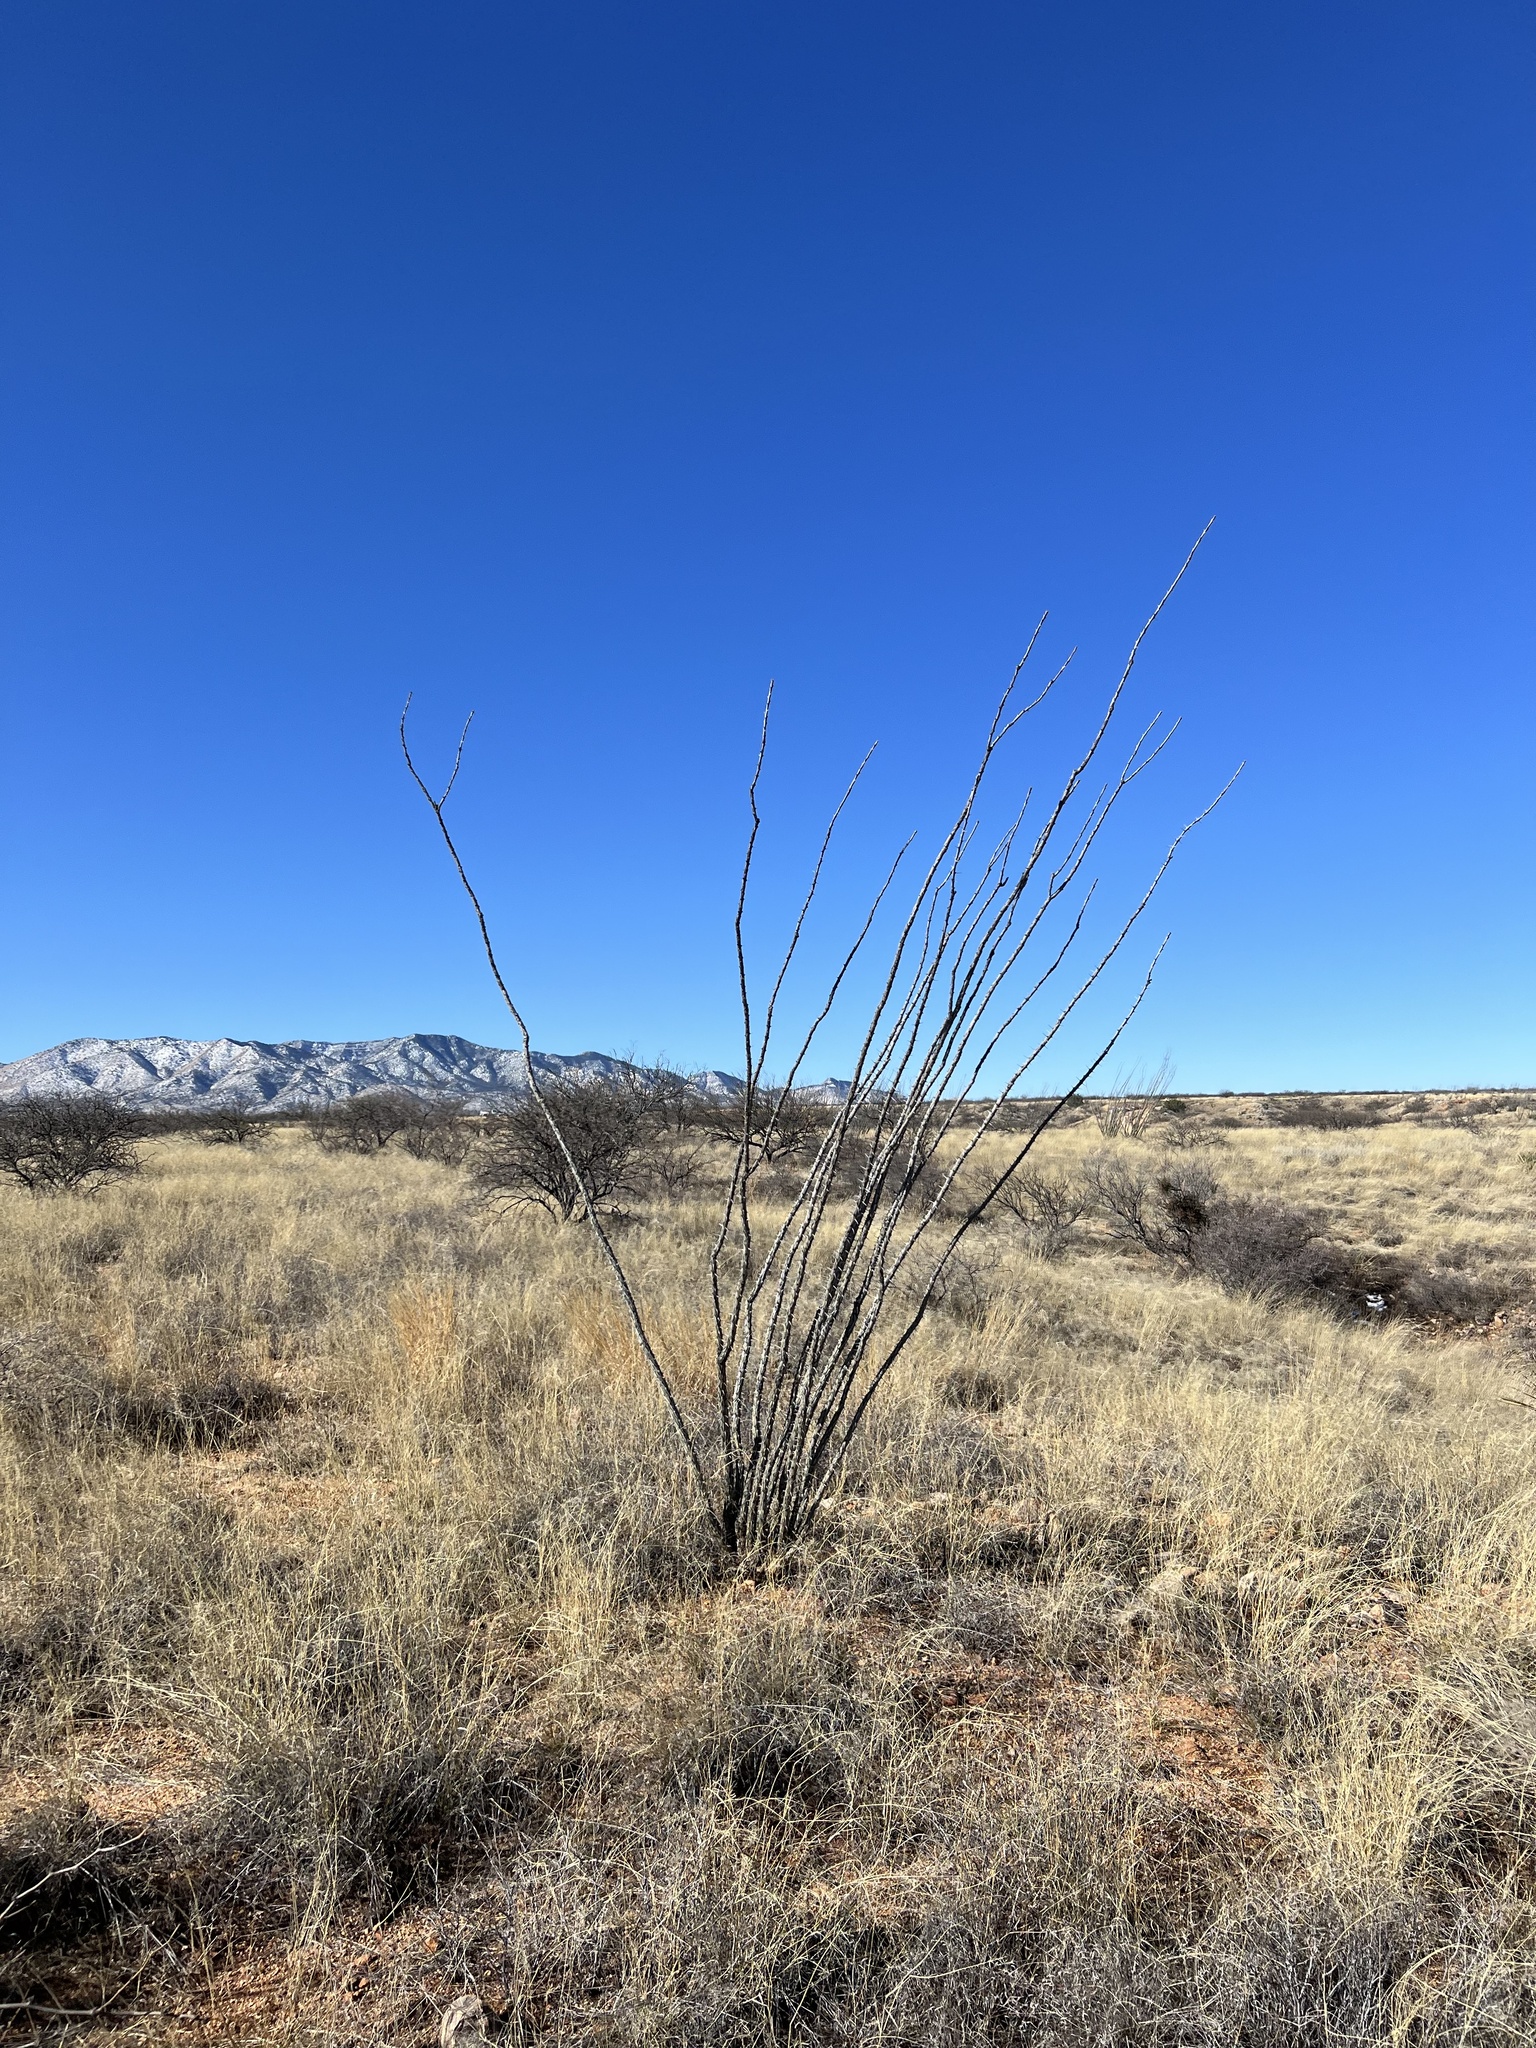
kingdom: Plantae
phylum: Tracheophyta
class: Magnoliopsida
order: Ericales
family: Fouquieriaceae
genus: Fouquieria
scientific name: Fouquieria splendens
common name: Vine-cactus
